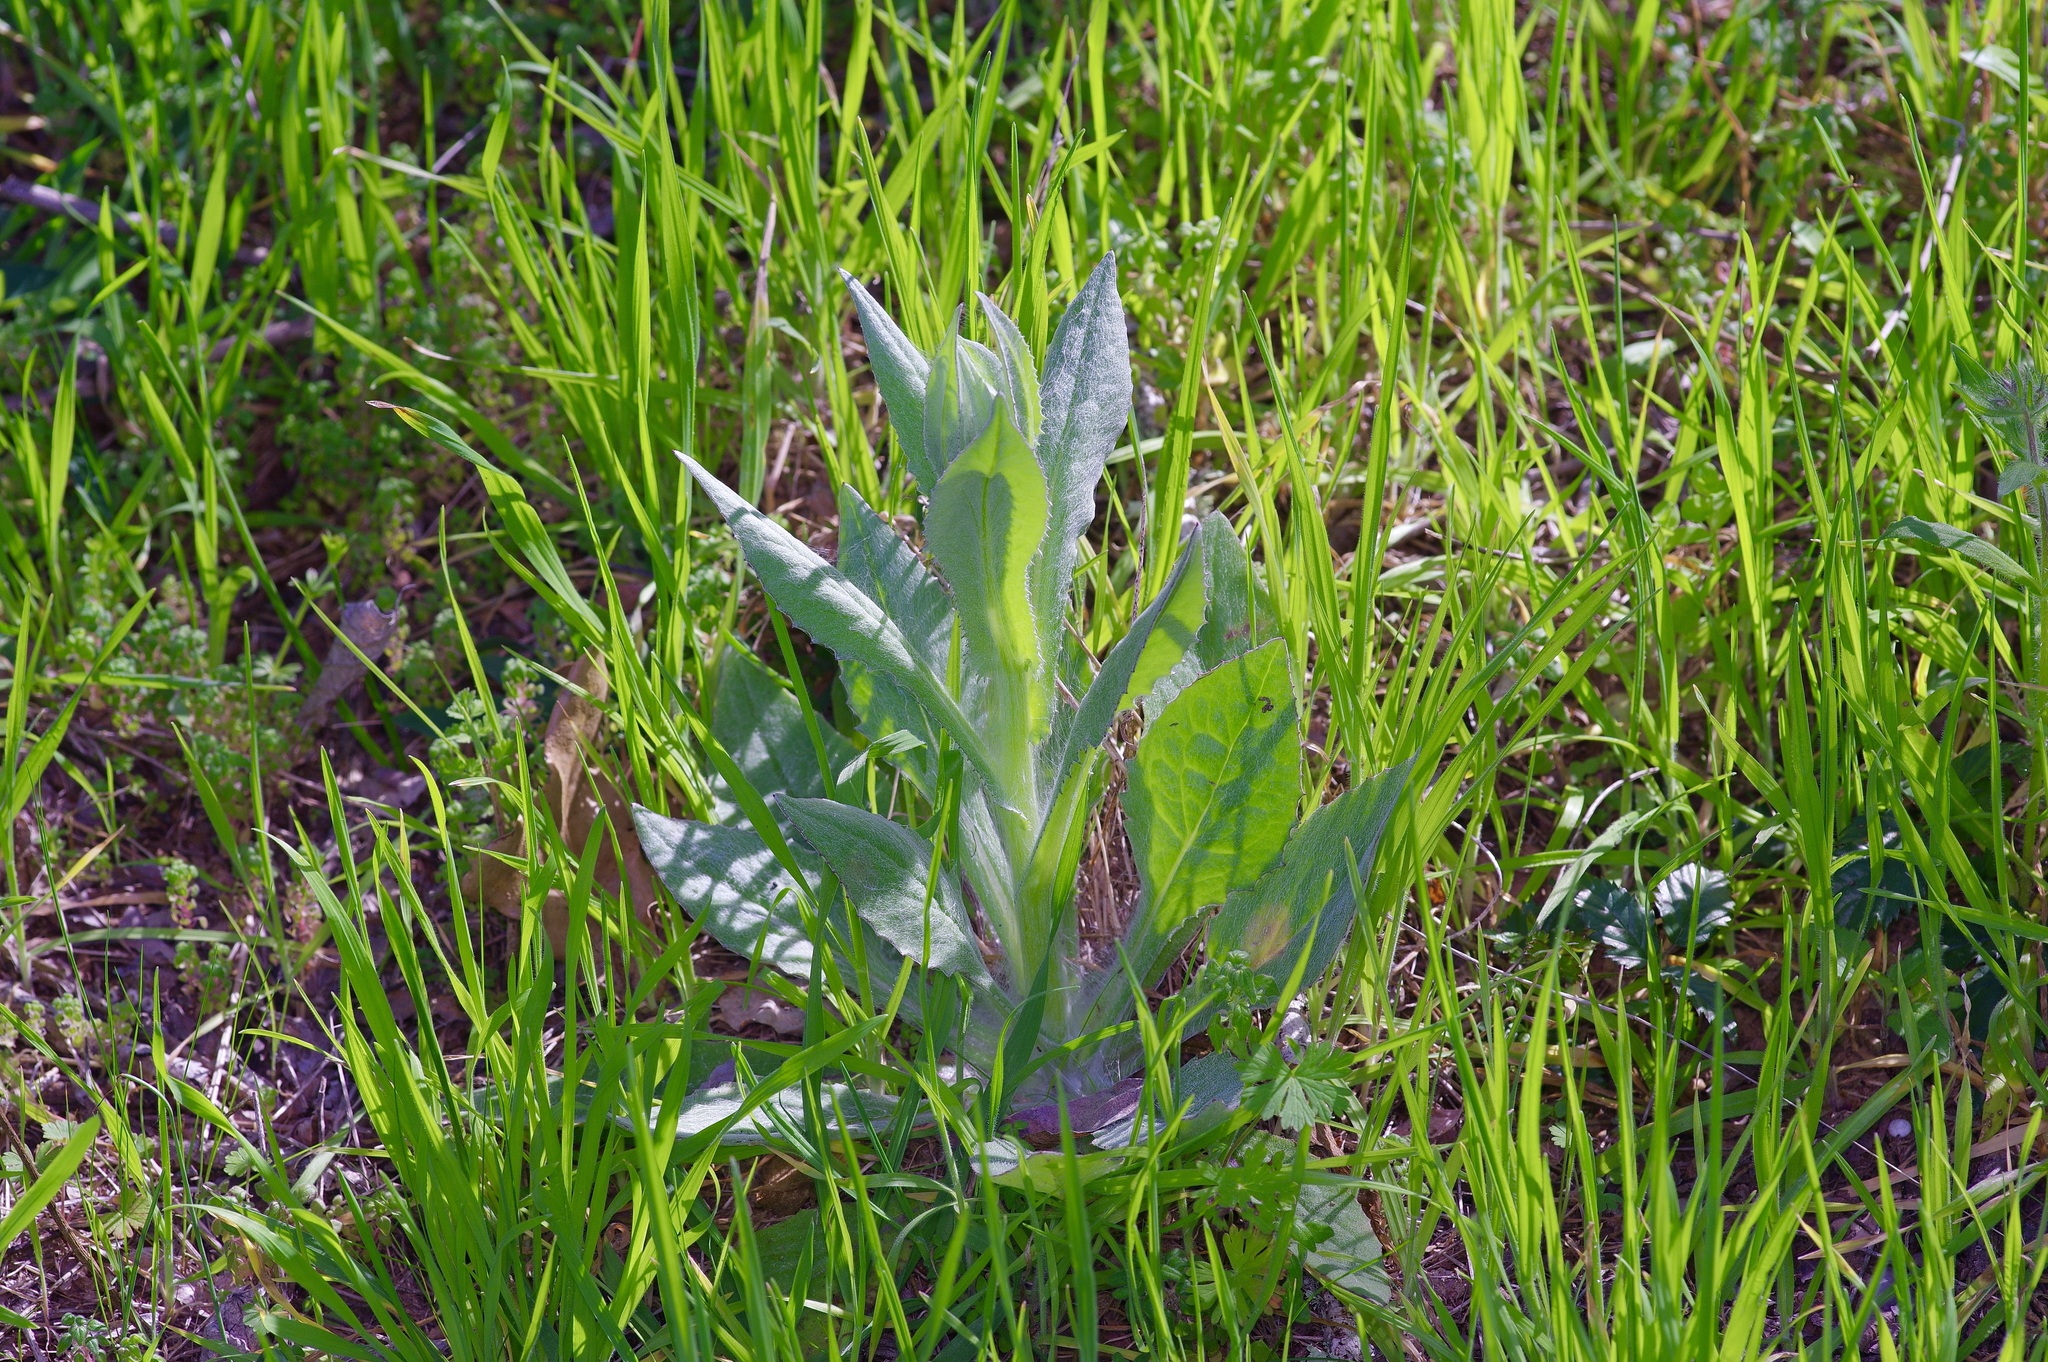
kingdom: Plantae
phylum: Tracheophyta
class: Magnoliopsida
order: Asterales
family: Asteraceae
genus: Senecio
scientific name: Senecio ampullaceus
